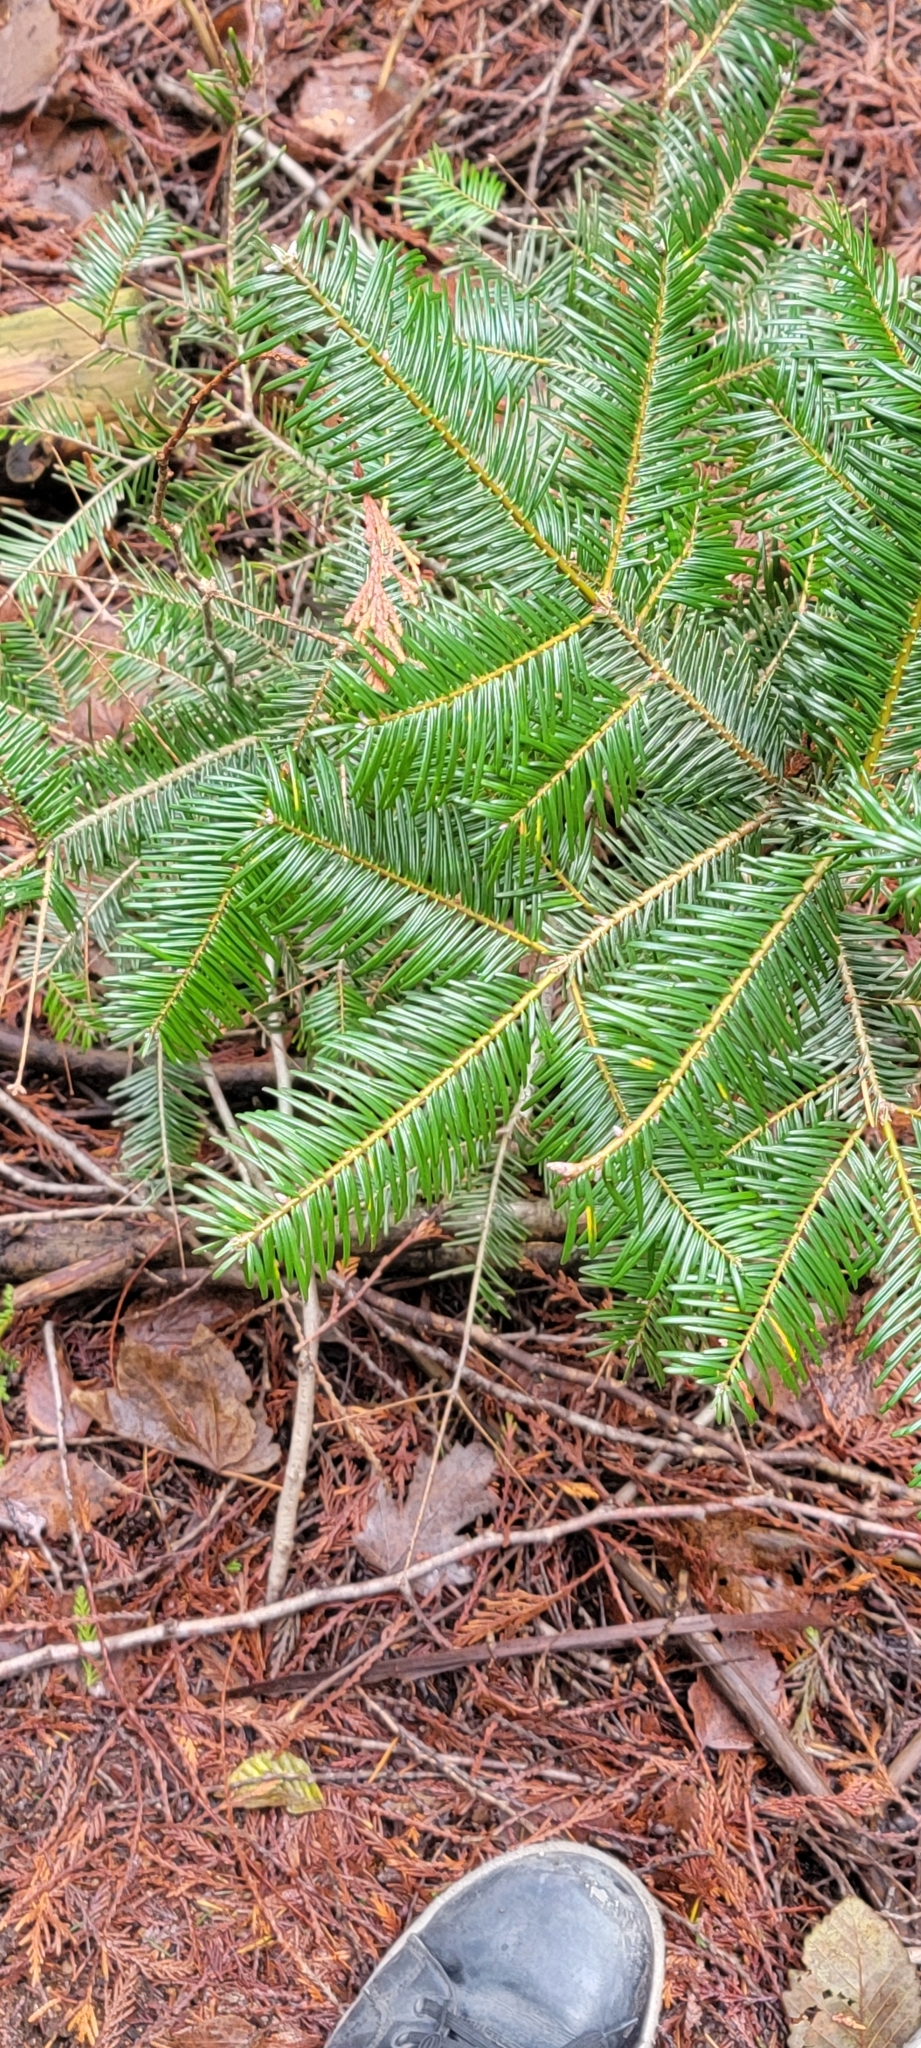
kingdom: Plantae
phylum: Tracheophyta
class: Pinopsida
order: Pinales
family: Pinaceae
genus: Abies
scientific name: Abies grandis
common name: Giant fir
